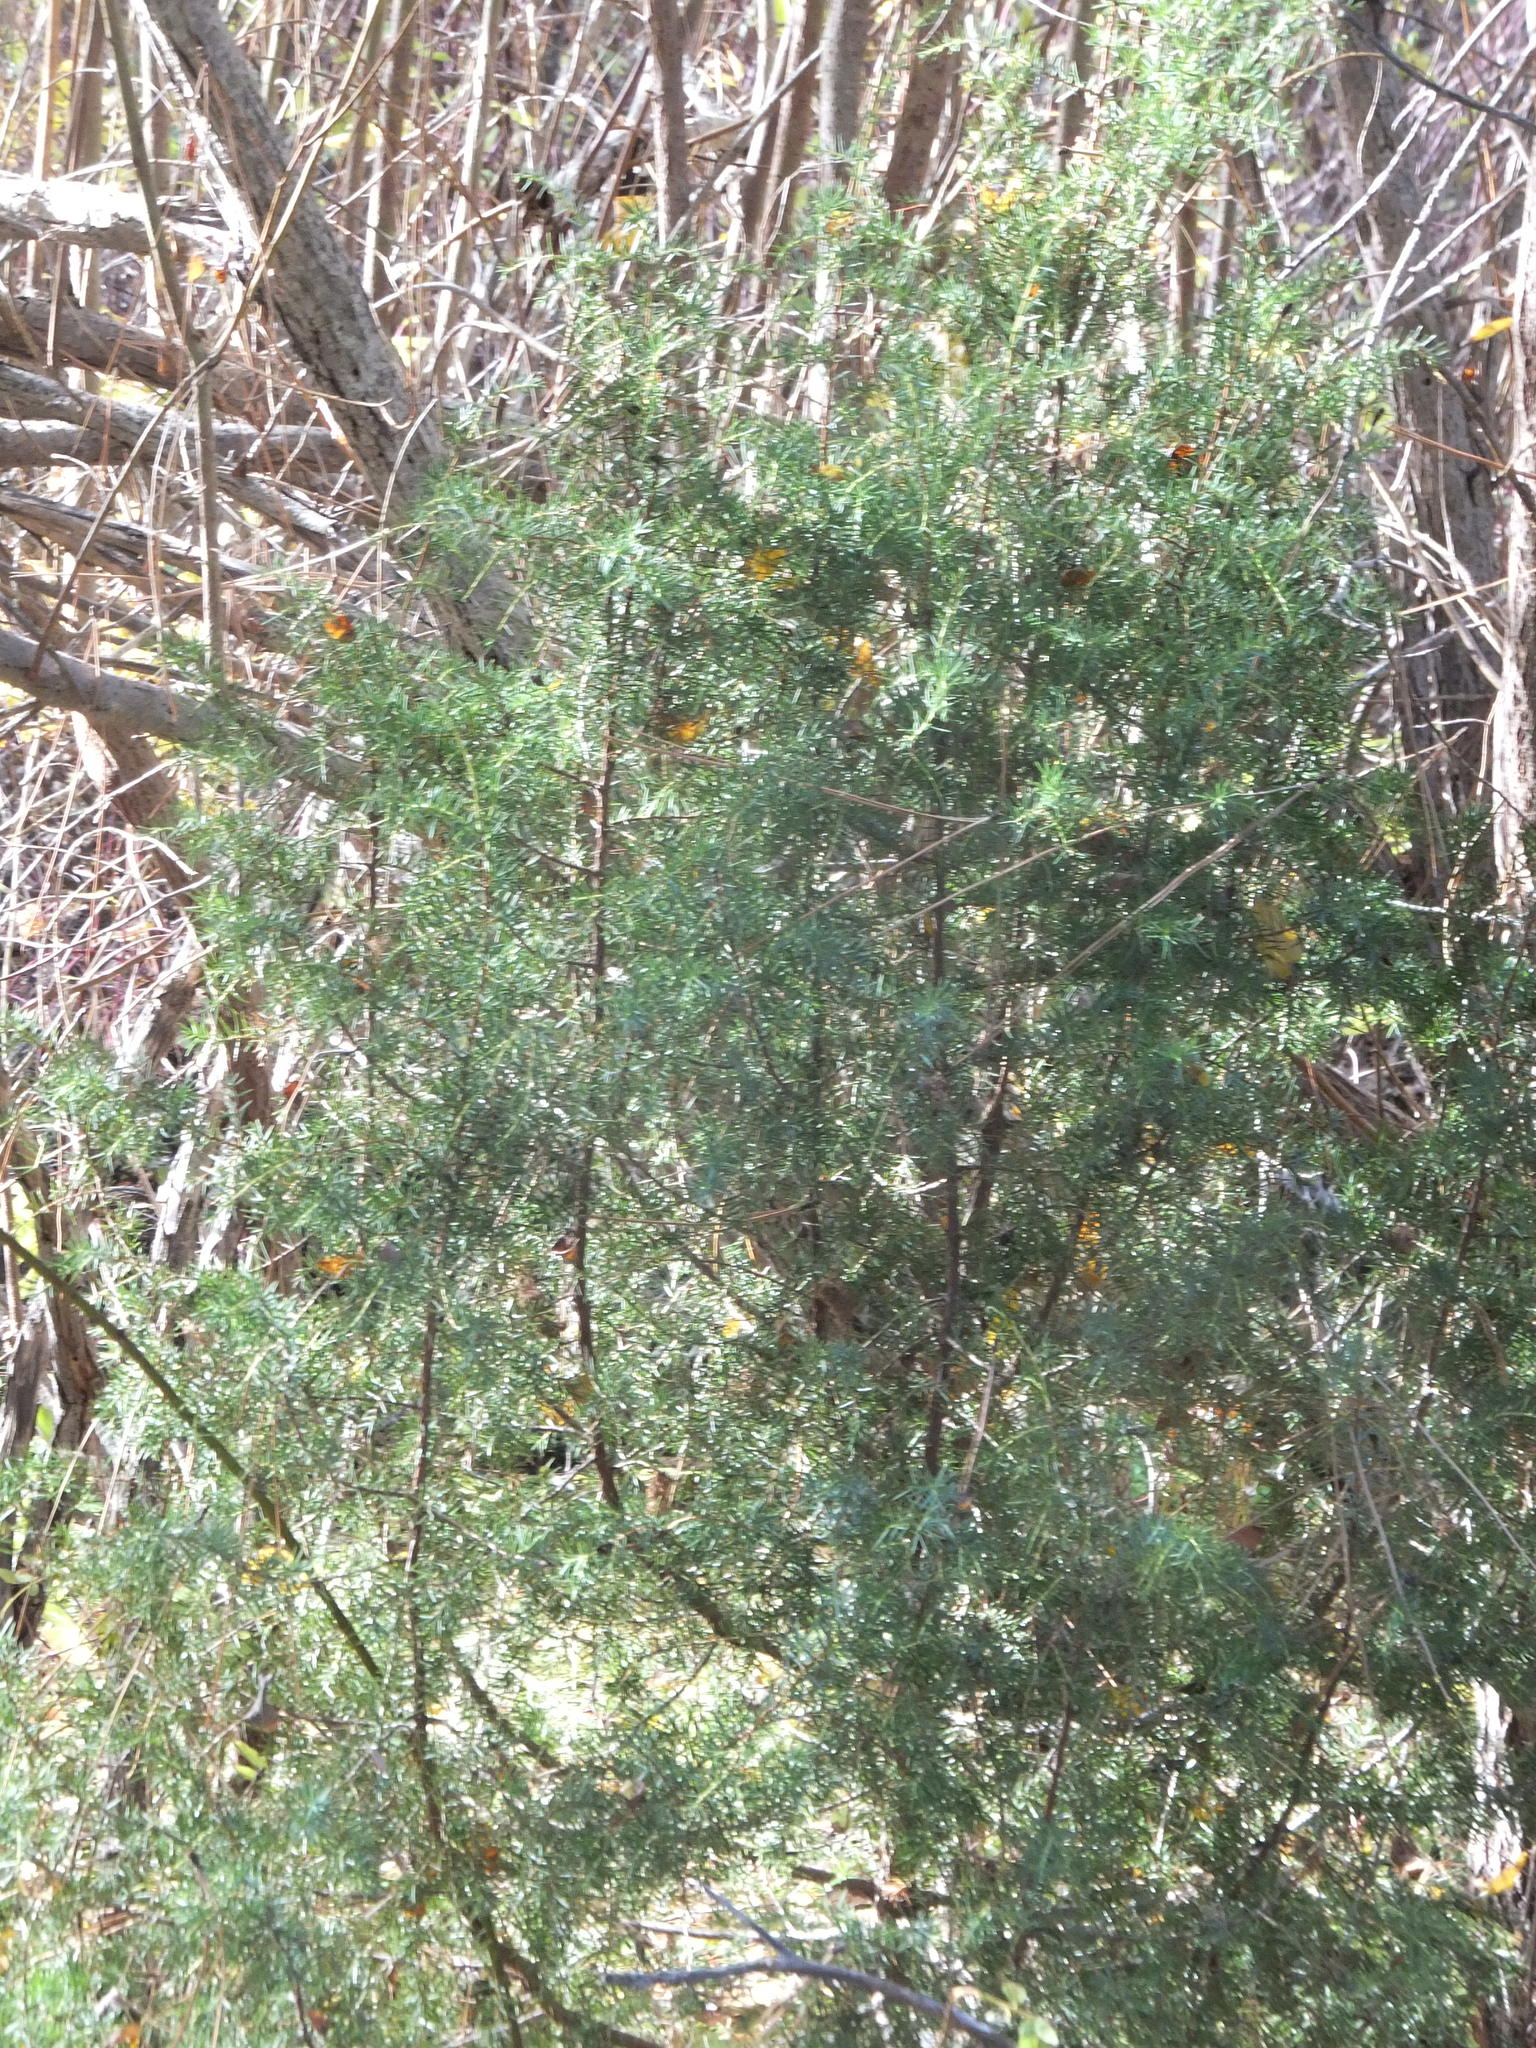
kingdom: Plantae
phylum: Tracheophyta
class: Pinopsida
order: Pinales
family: Cupressaceae
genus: Juniperus
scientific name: Juniperus scopulorum
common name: Rocky mountain juniper
